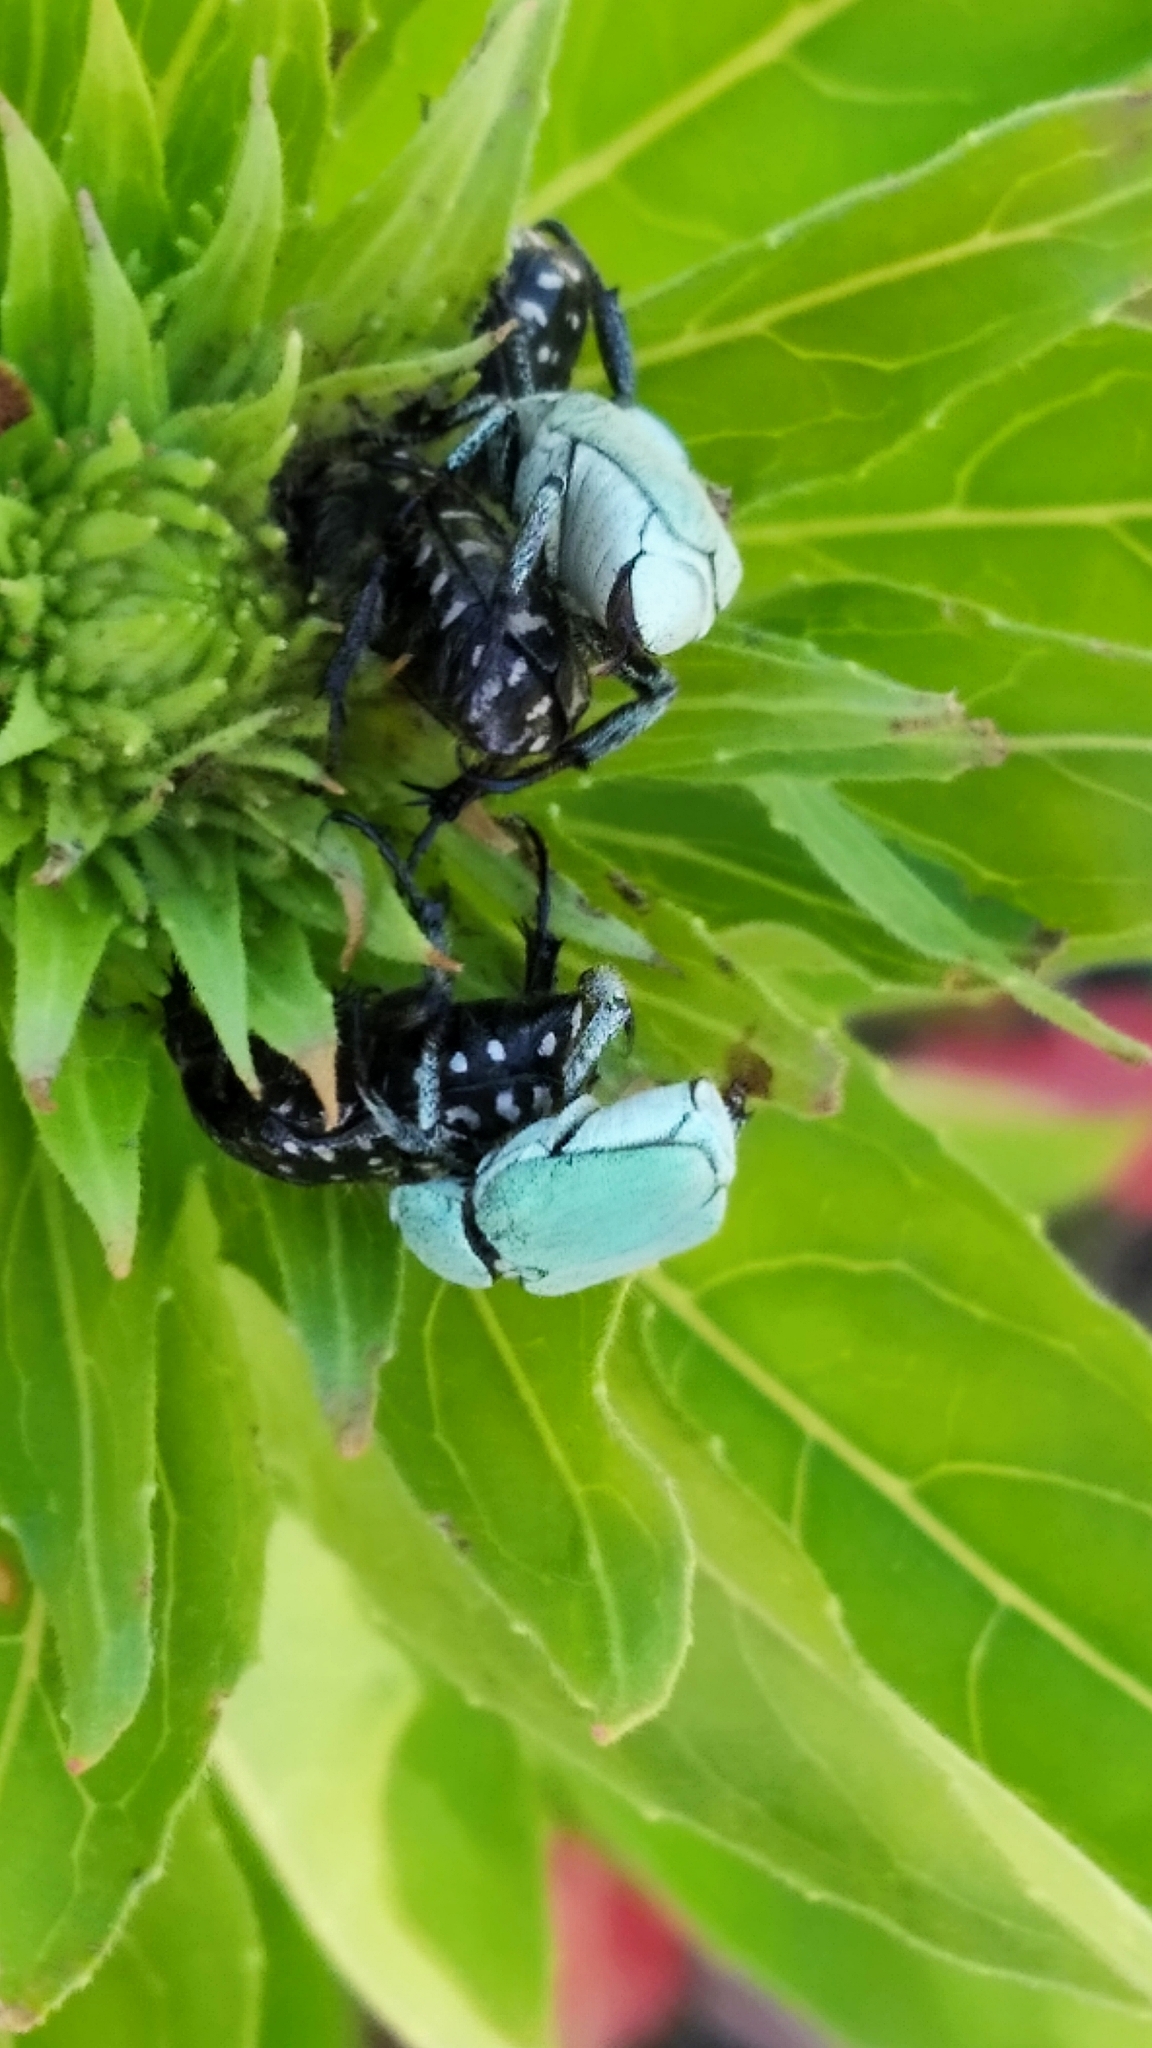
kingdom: Animalia
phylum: Arthropoda
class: Insecta
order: Coleoptera
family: Scarabaeidae
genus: Hoplia
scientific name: Hoplia parvula
